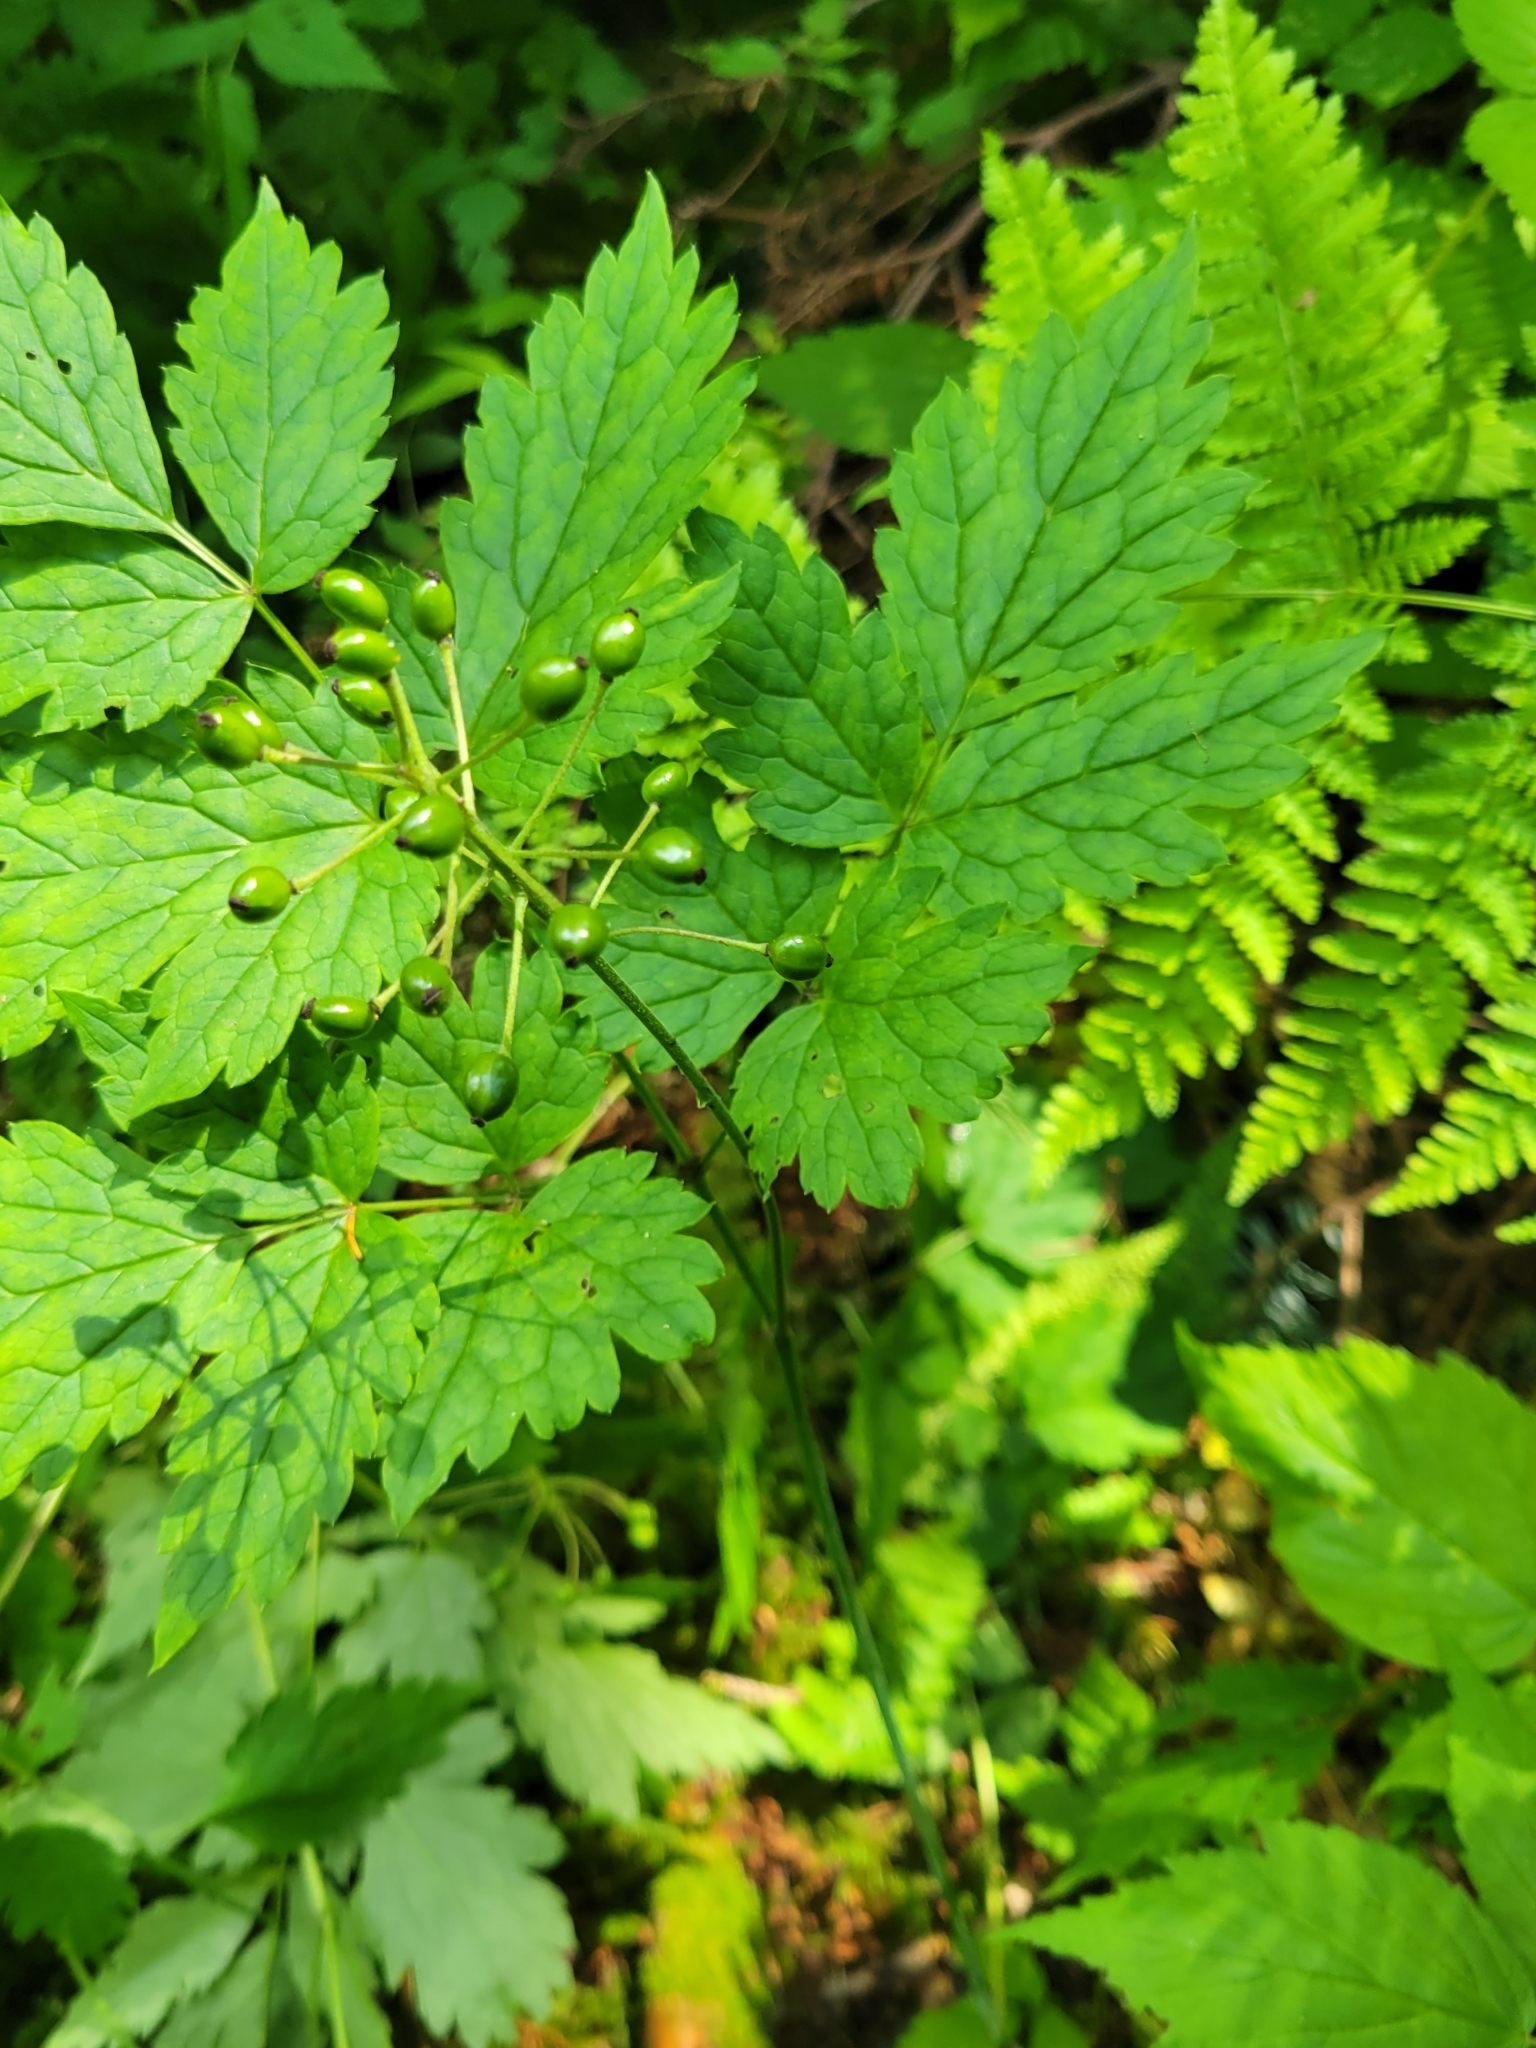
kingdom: Plantae
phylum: Tracheophyta
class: Magnoliopsida
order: Ranunculales
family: Ranunculaceae
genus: Actaea
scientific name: Actaea rubra
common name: Red baneberry
